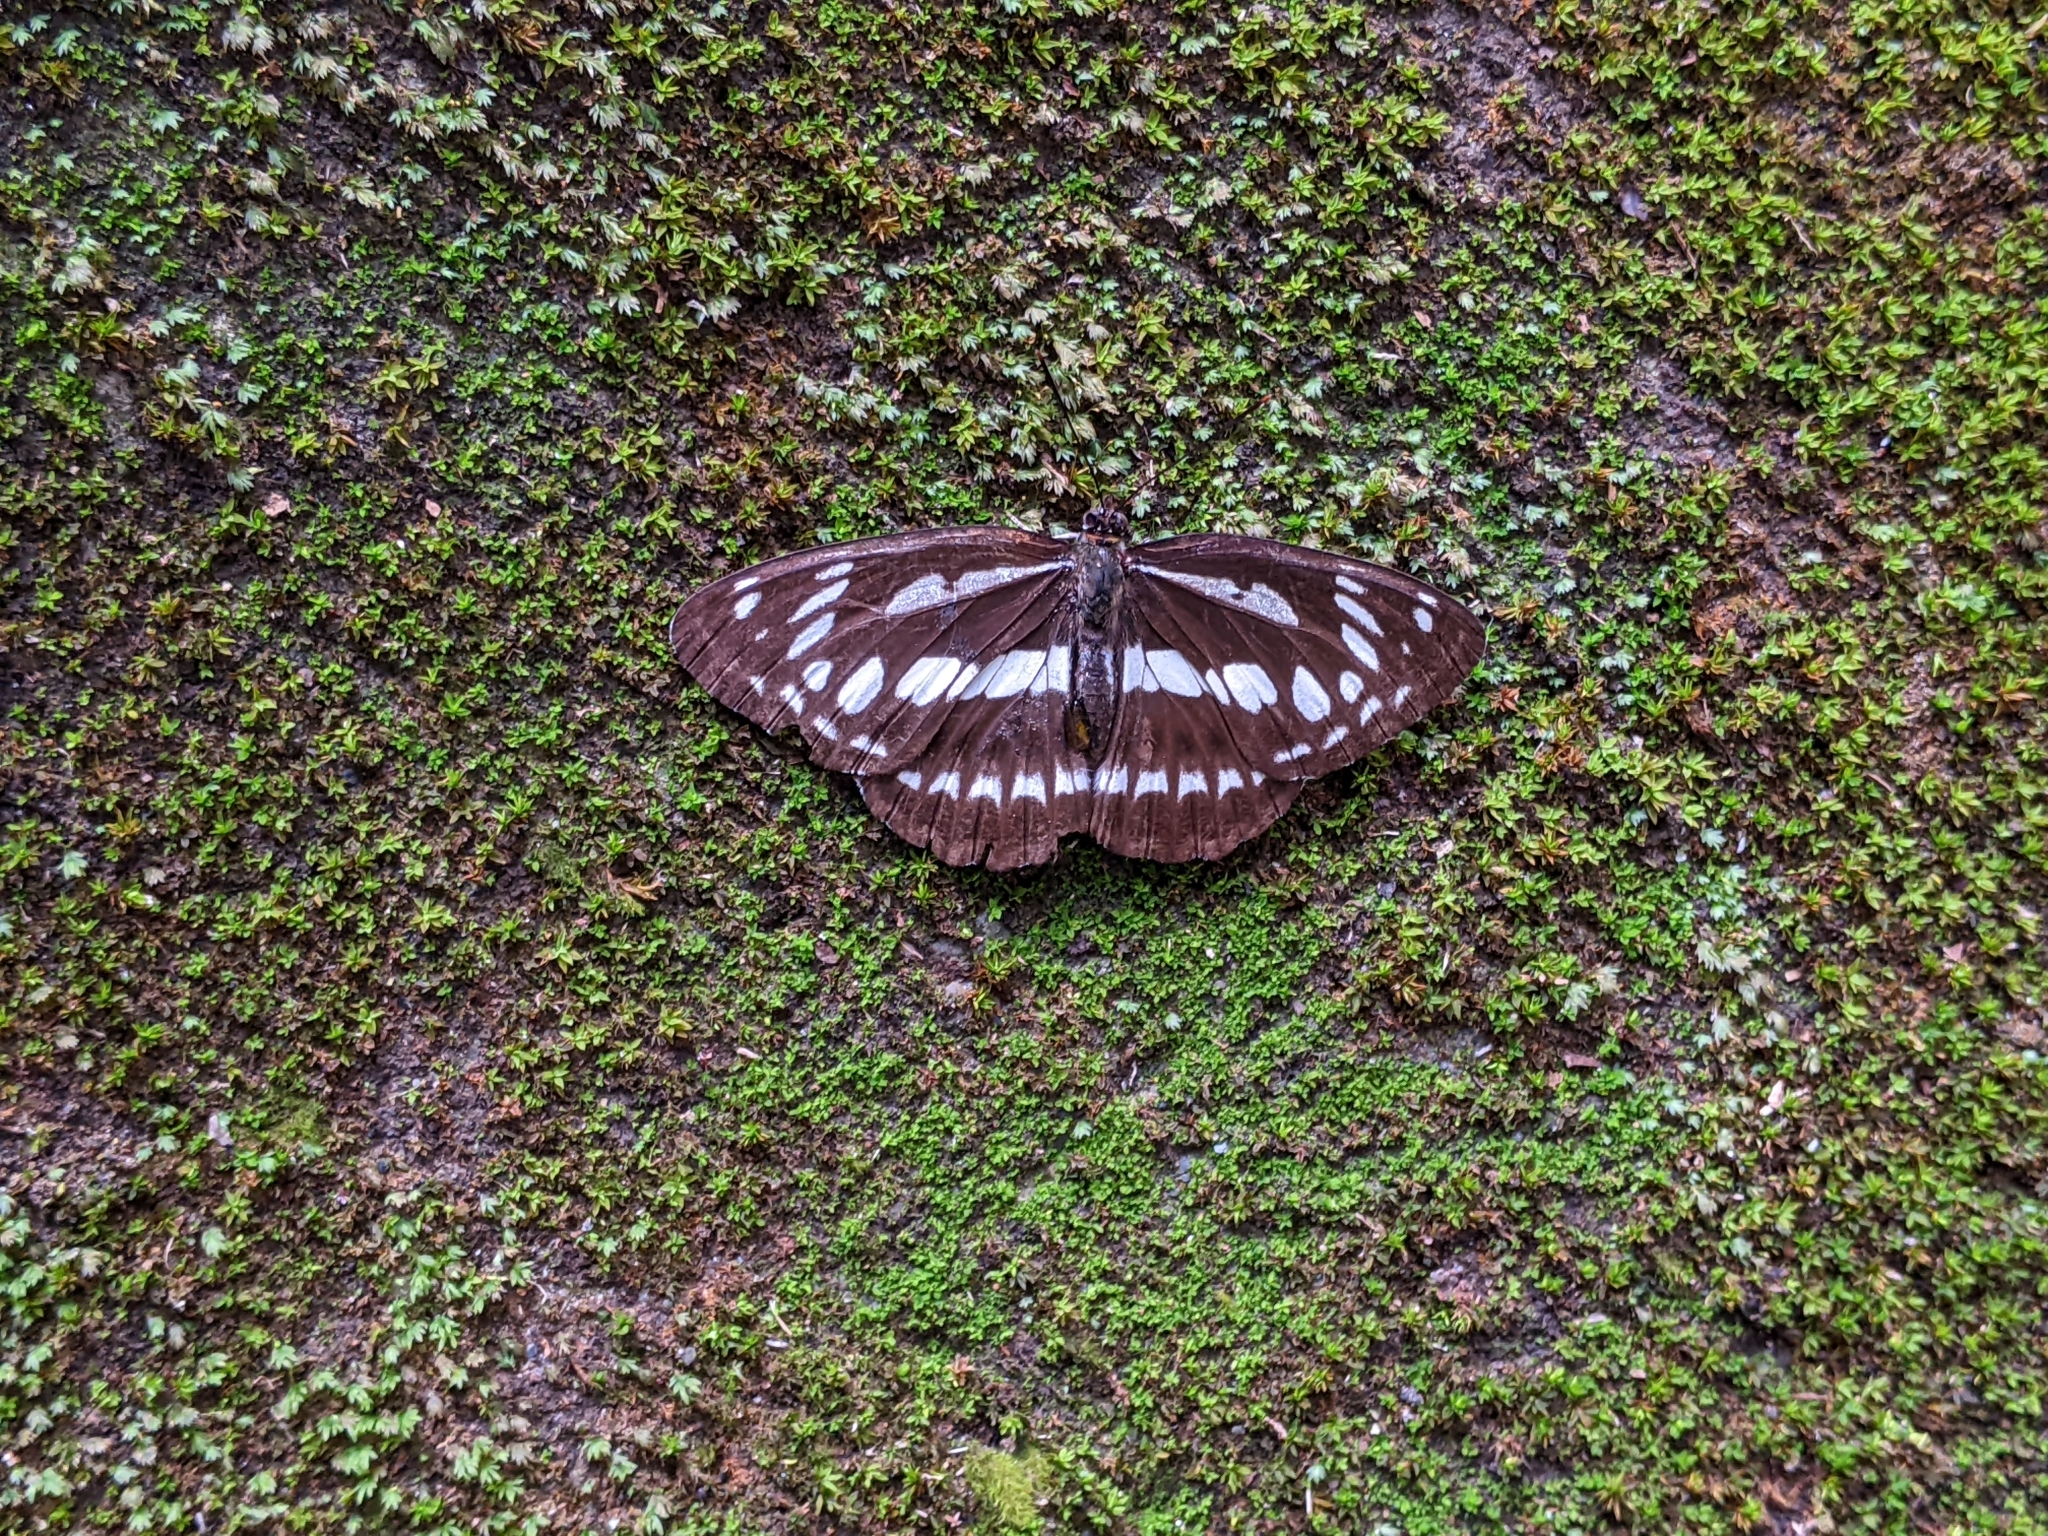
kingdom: Animalia
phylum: Arthropoda
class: Insecta
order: Lepidoptera
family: Nymphalidae
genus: Limenitis
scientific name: Limenitis sulpitia
